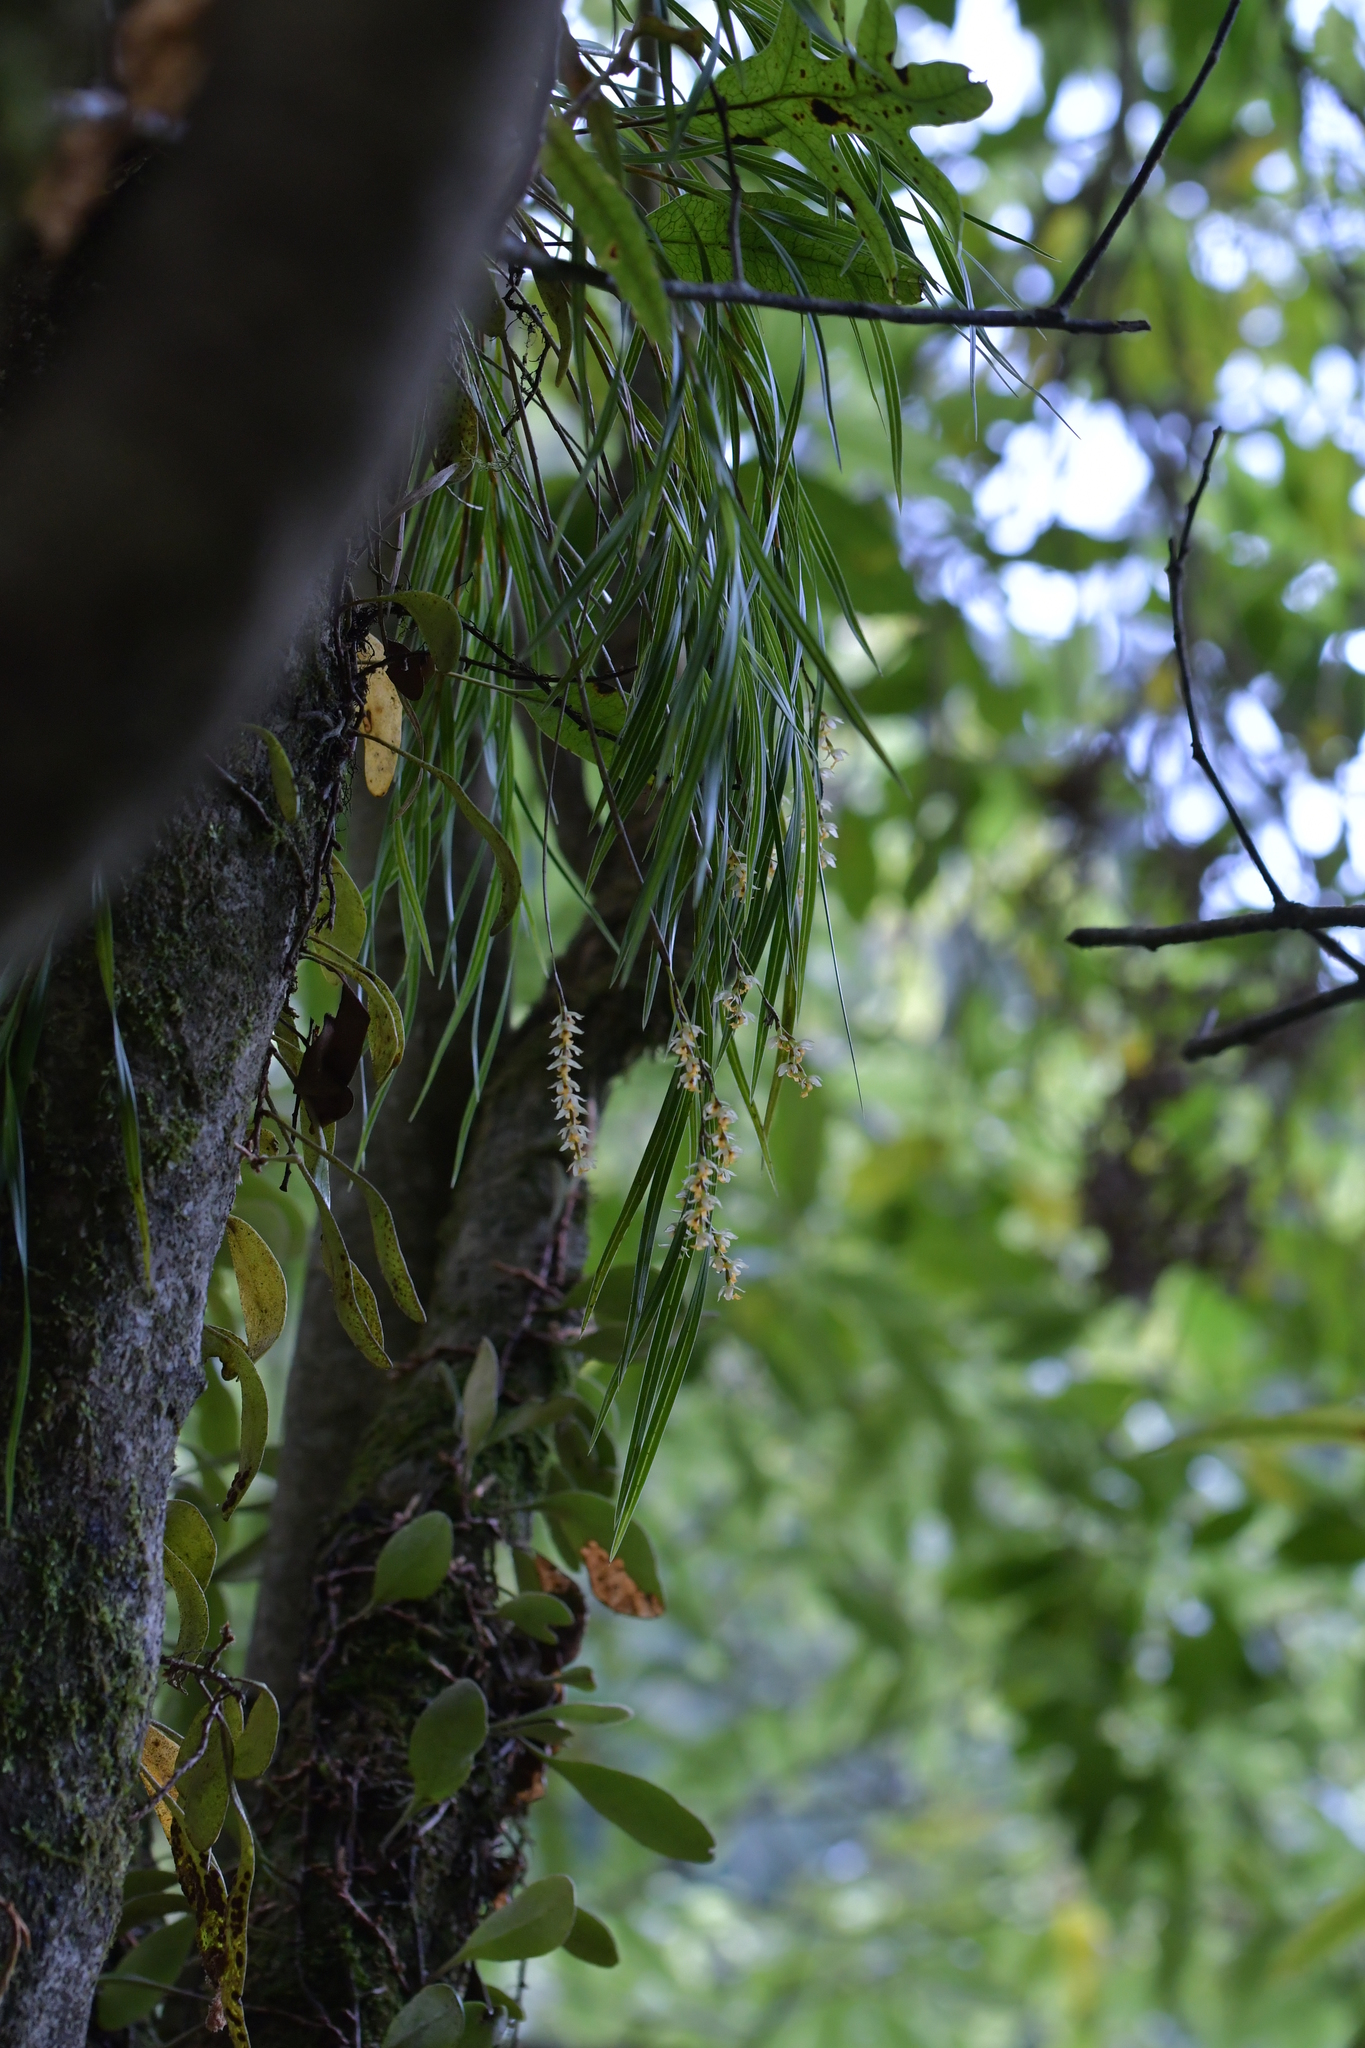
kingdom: Plantae
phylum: Tracheophyta
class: Liliopsida
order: Asparagales
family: Orchidaceae
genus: Earina
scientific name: Earina mucronata
